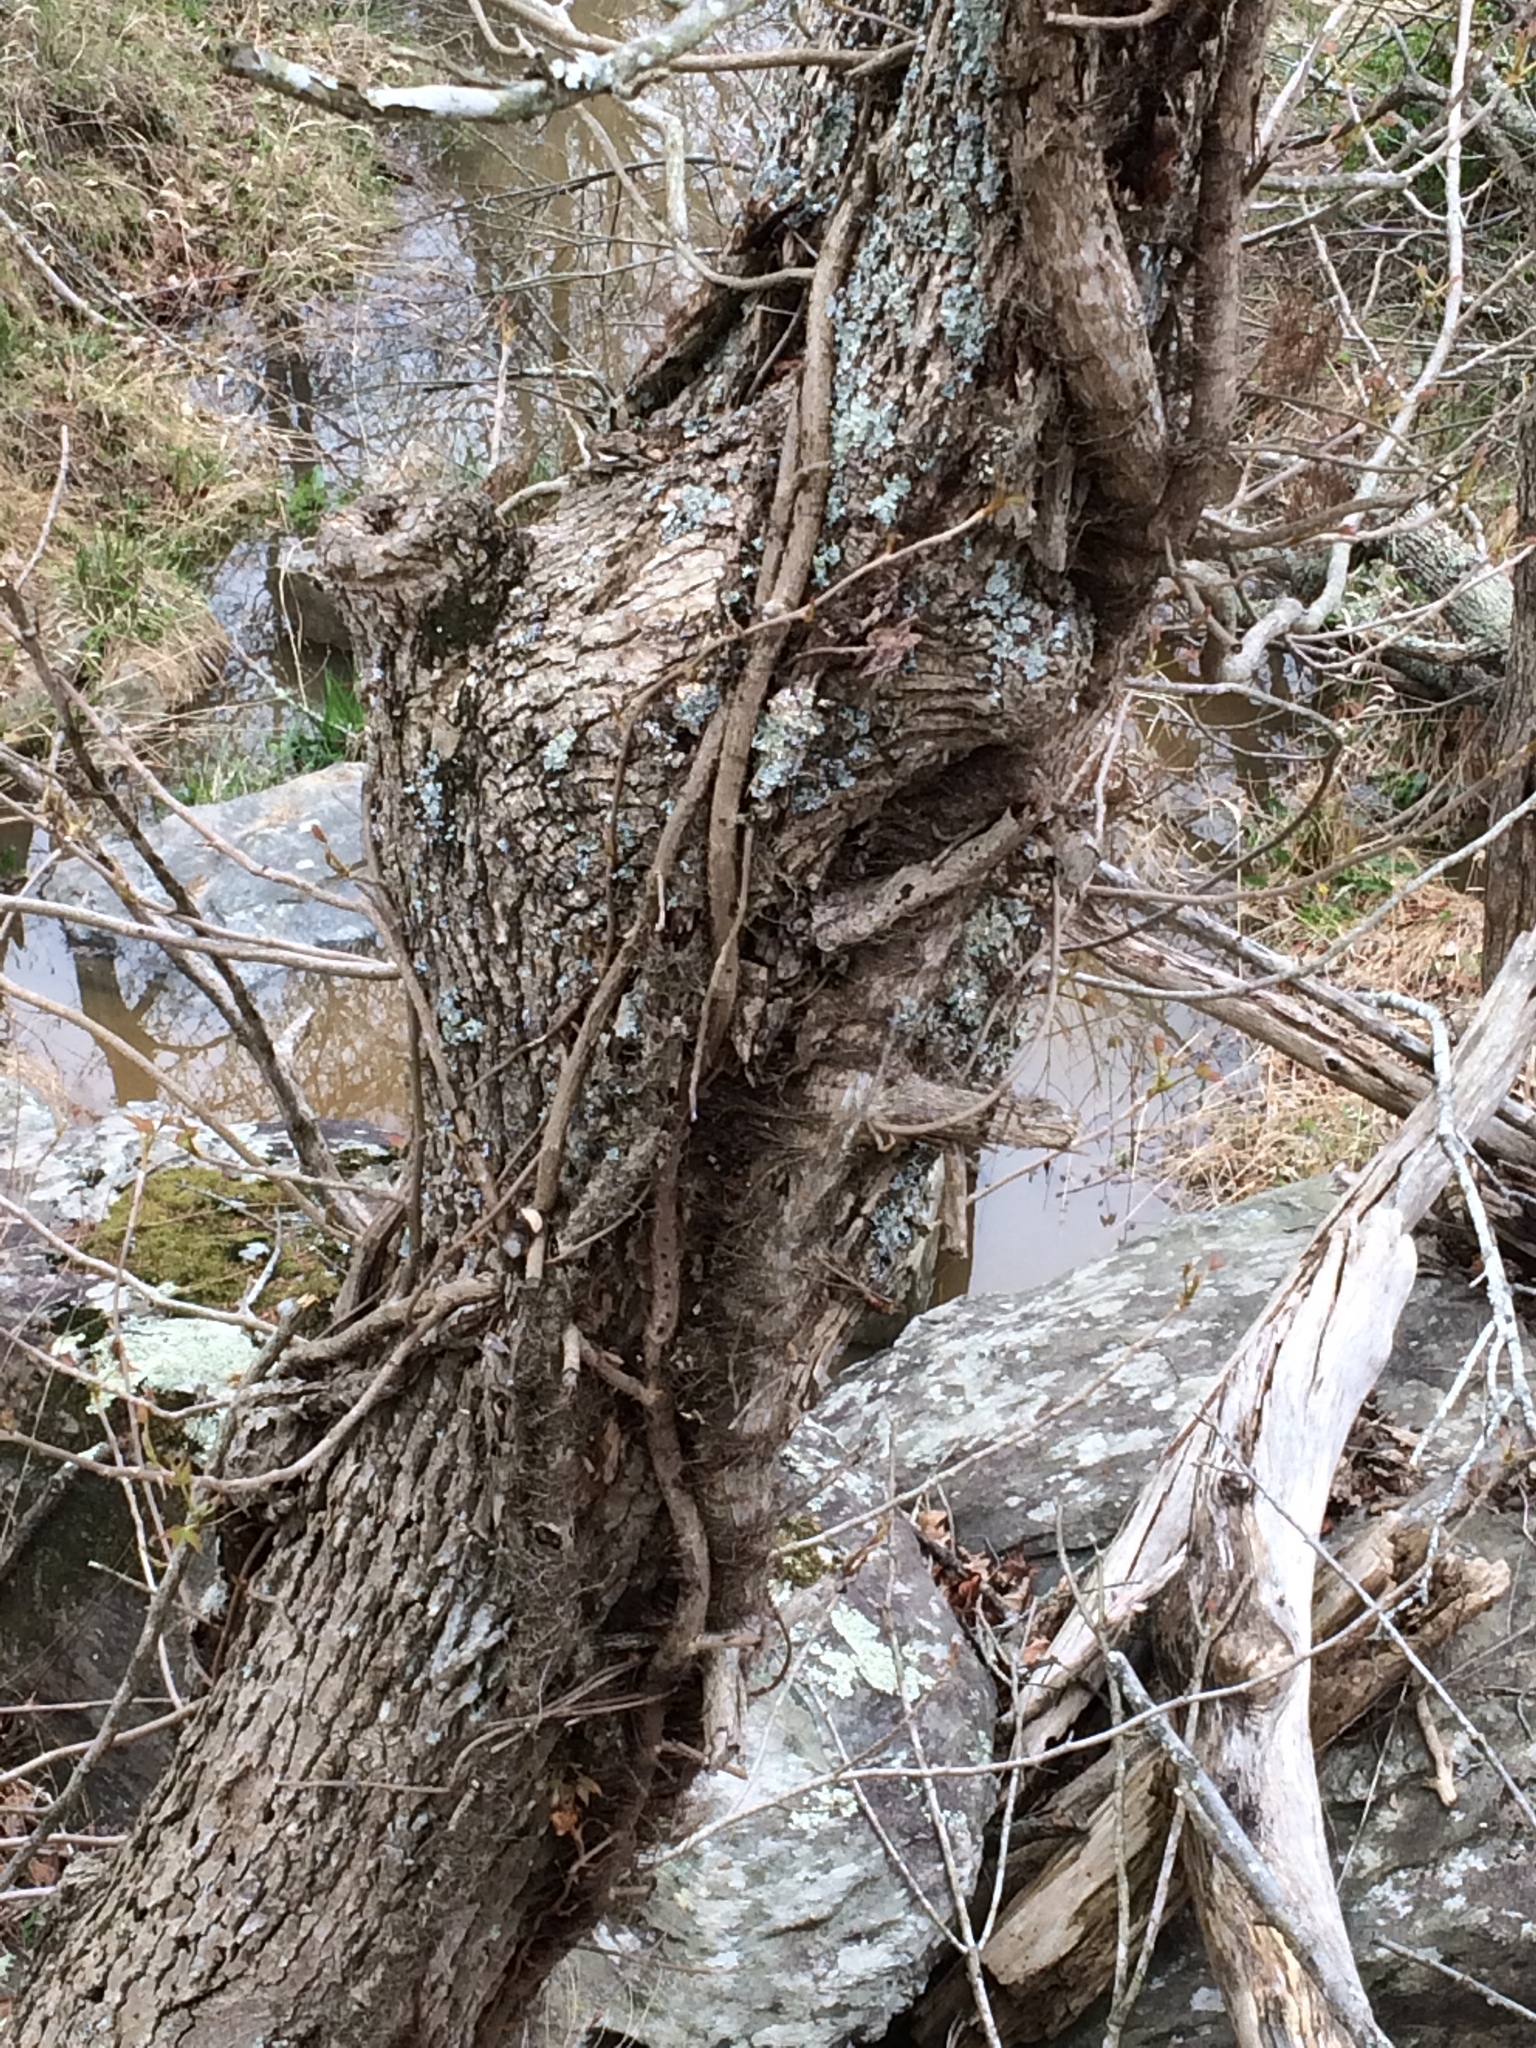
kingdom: Plantae
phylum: Tracheophyta
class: Magnoliopsida
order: Sapindales
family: Anacardiaceae
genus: Toxicodendron
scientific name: Toxicodendron radicans
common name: Poison ivy
